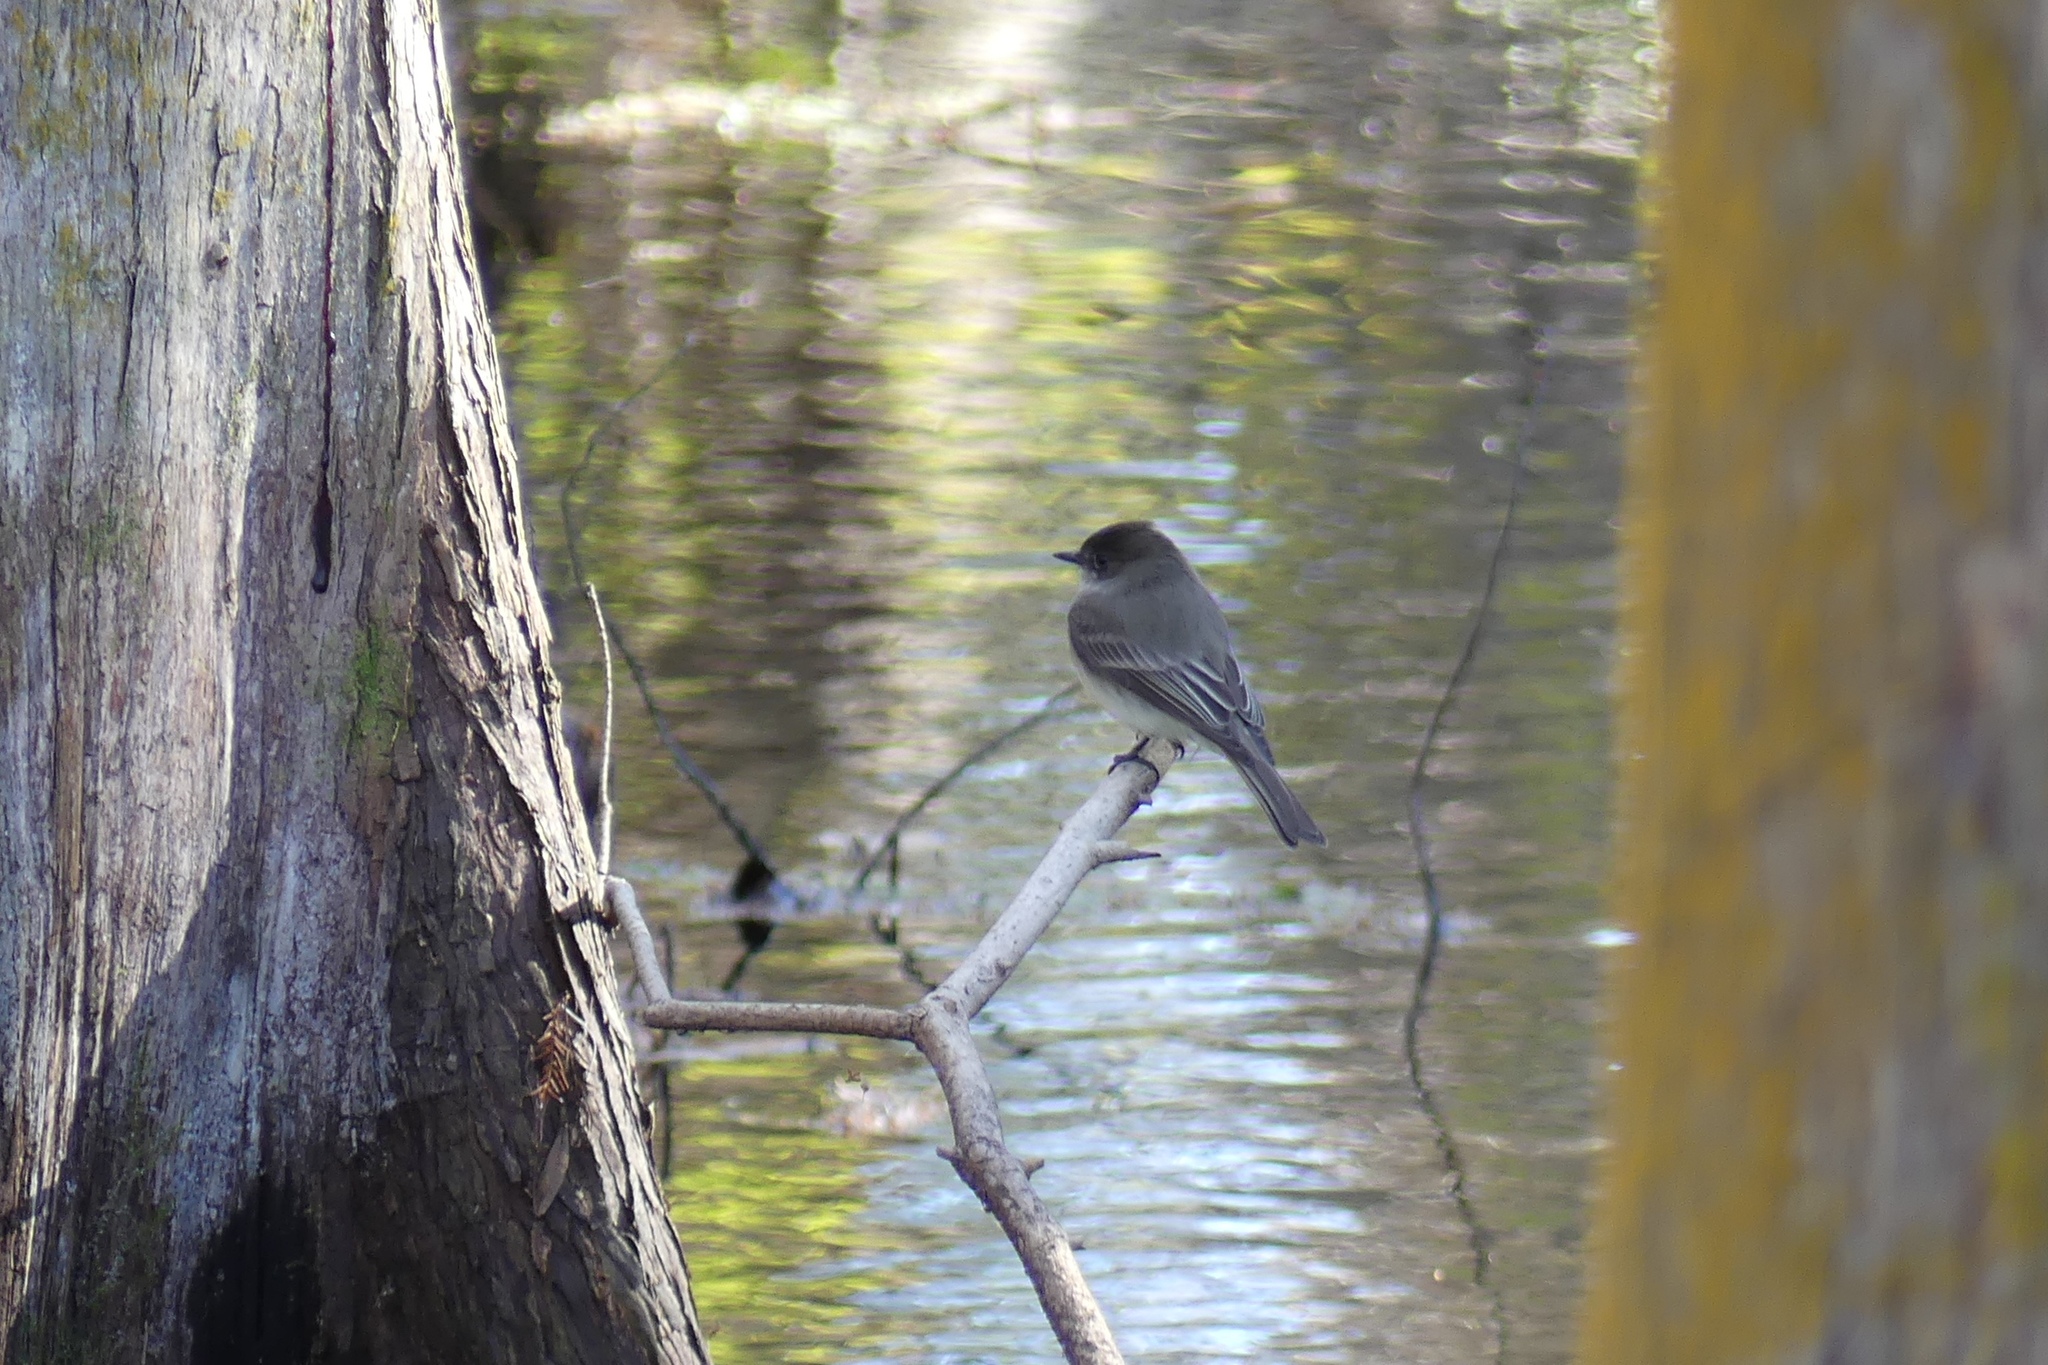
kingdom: Animalia
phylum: Chordata
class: Aves
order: Passeriformes
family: Tyrannidae
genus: Sayornis
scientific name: Sayornis phoebe
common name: Eastern phoebe
